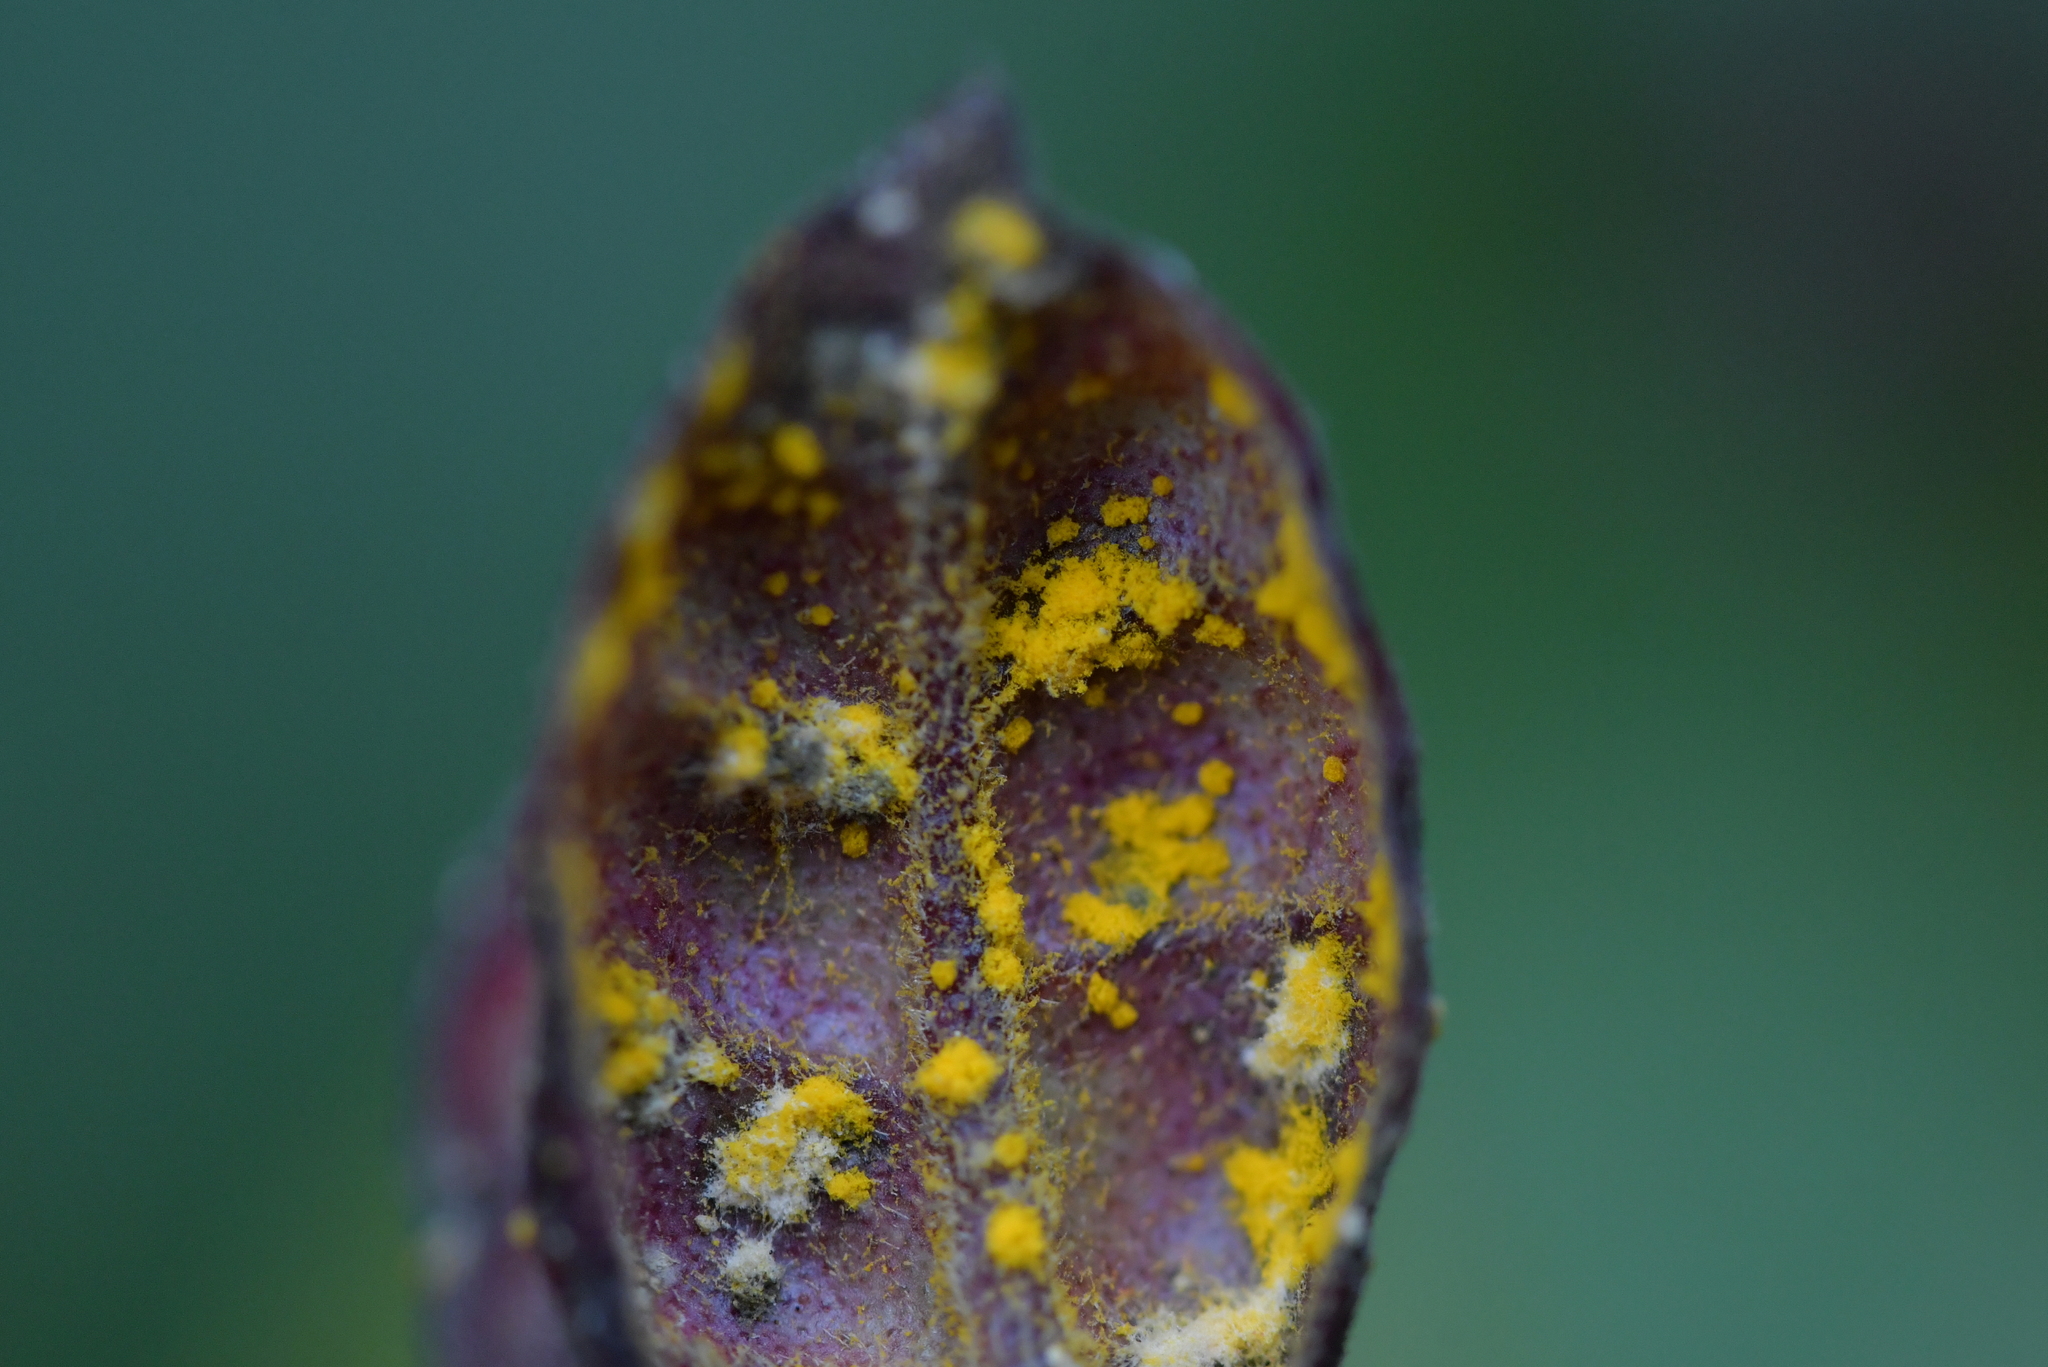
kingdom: Fungi
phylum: Basidiomycota
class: Pucciniomycetes
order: Pucciniales
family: Sphaerophragmiaceae
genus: Austropuccinia
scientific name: Austropuccinia psidii
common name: Myrtle rust
